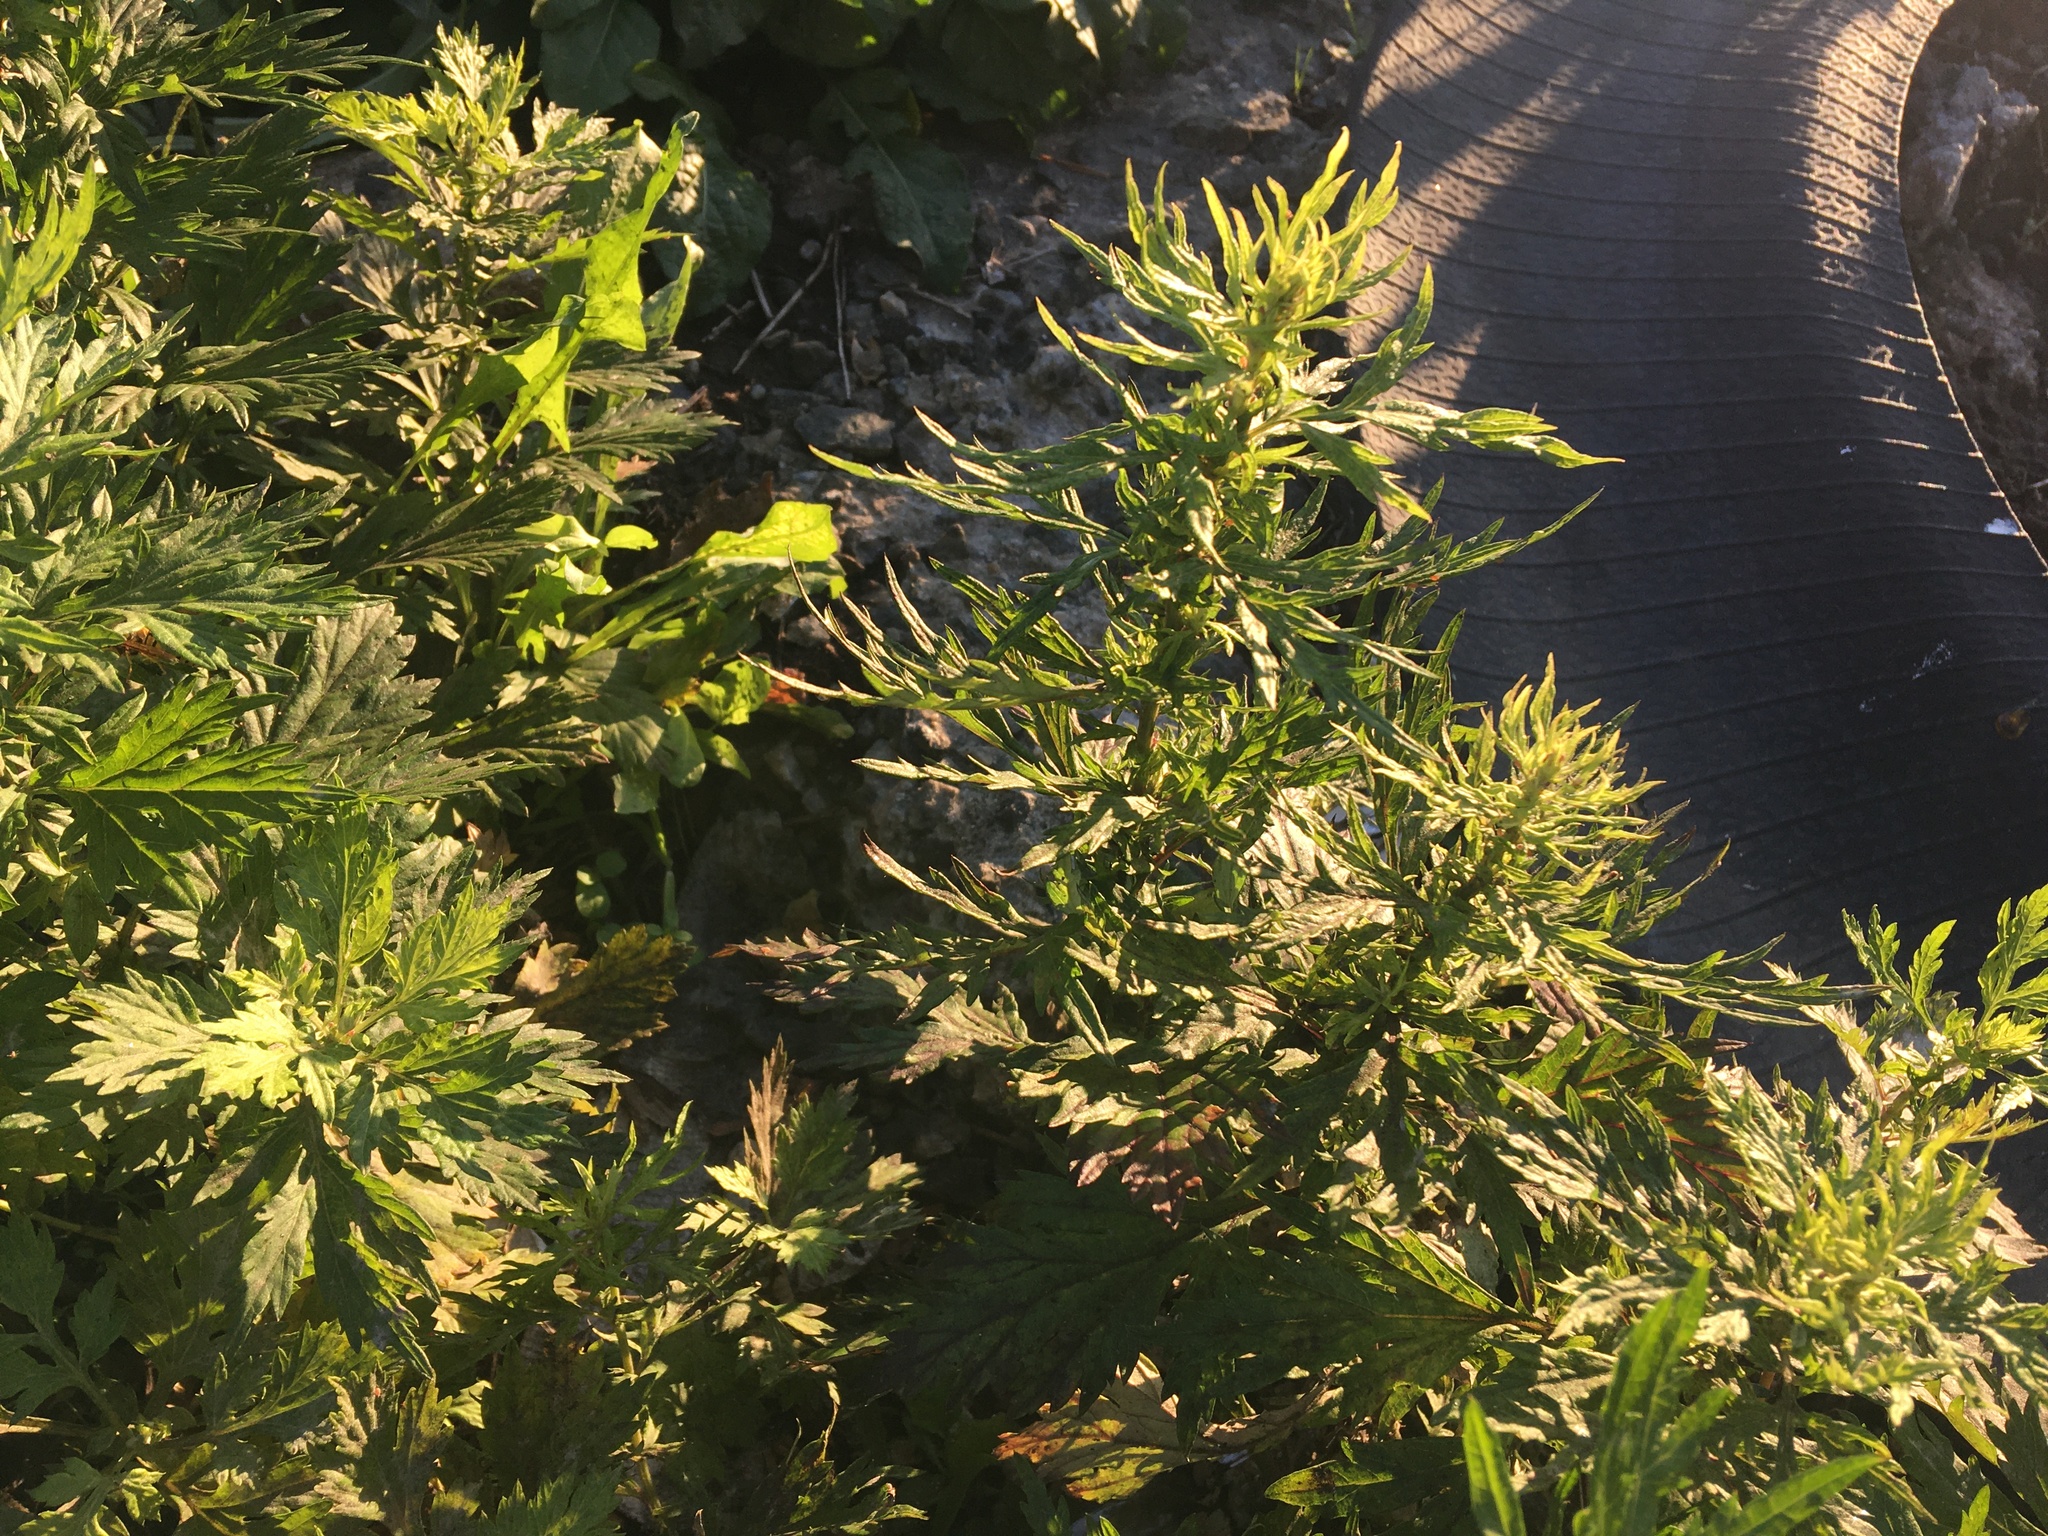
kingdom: Plantae
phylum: Tracheophyta
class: Magnoliopsida
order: Asterales
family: Asteraceae
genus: Artemisia
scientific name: Artemisia vulgaris
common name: Mugwort
